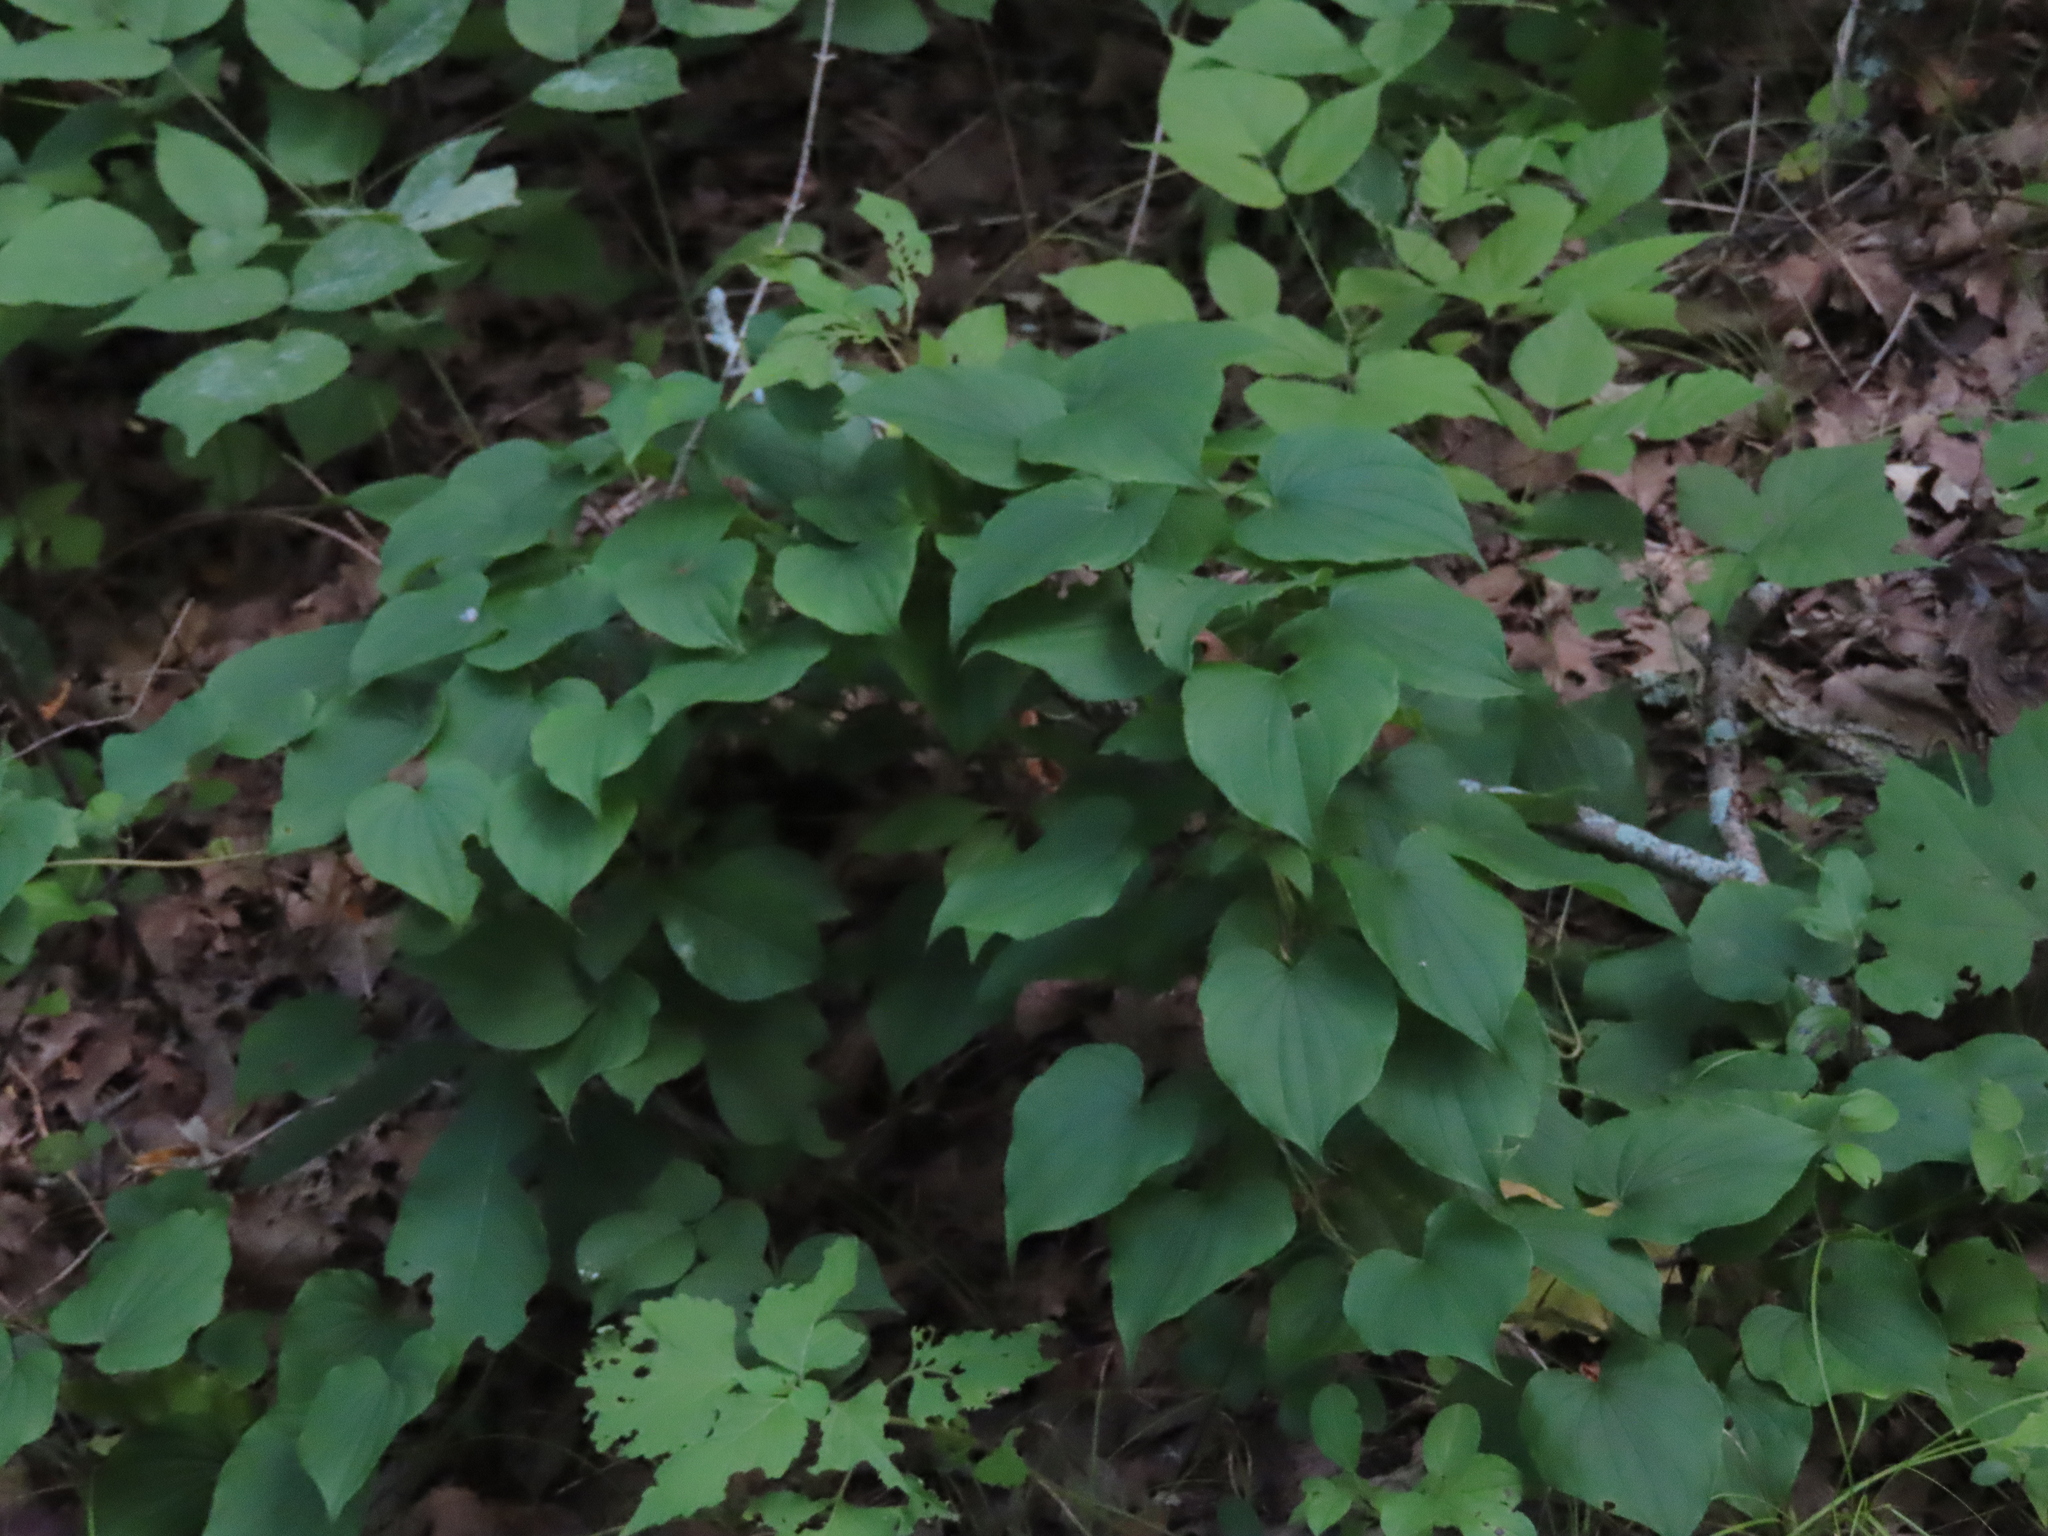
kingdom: Plantae
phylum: Tracheophyta
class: Liliopsida
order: Dioscoreales
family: Dioscoreaceae
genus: Dioscorea
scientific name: Dioscorea villosa
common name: Wild yam
